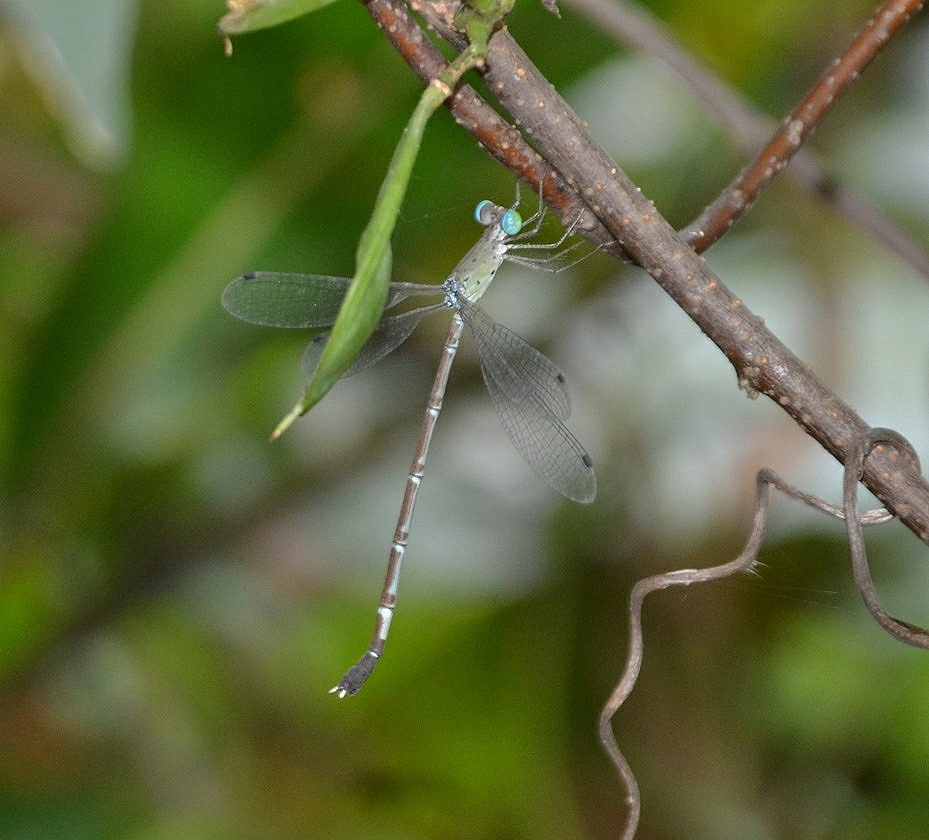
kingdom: Animalia
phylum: Arthropoda
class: Insecta
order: Odonata
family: Lestidae
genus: Platylestes
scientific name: Platylestes platystylus
